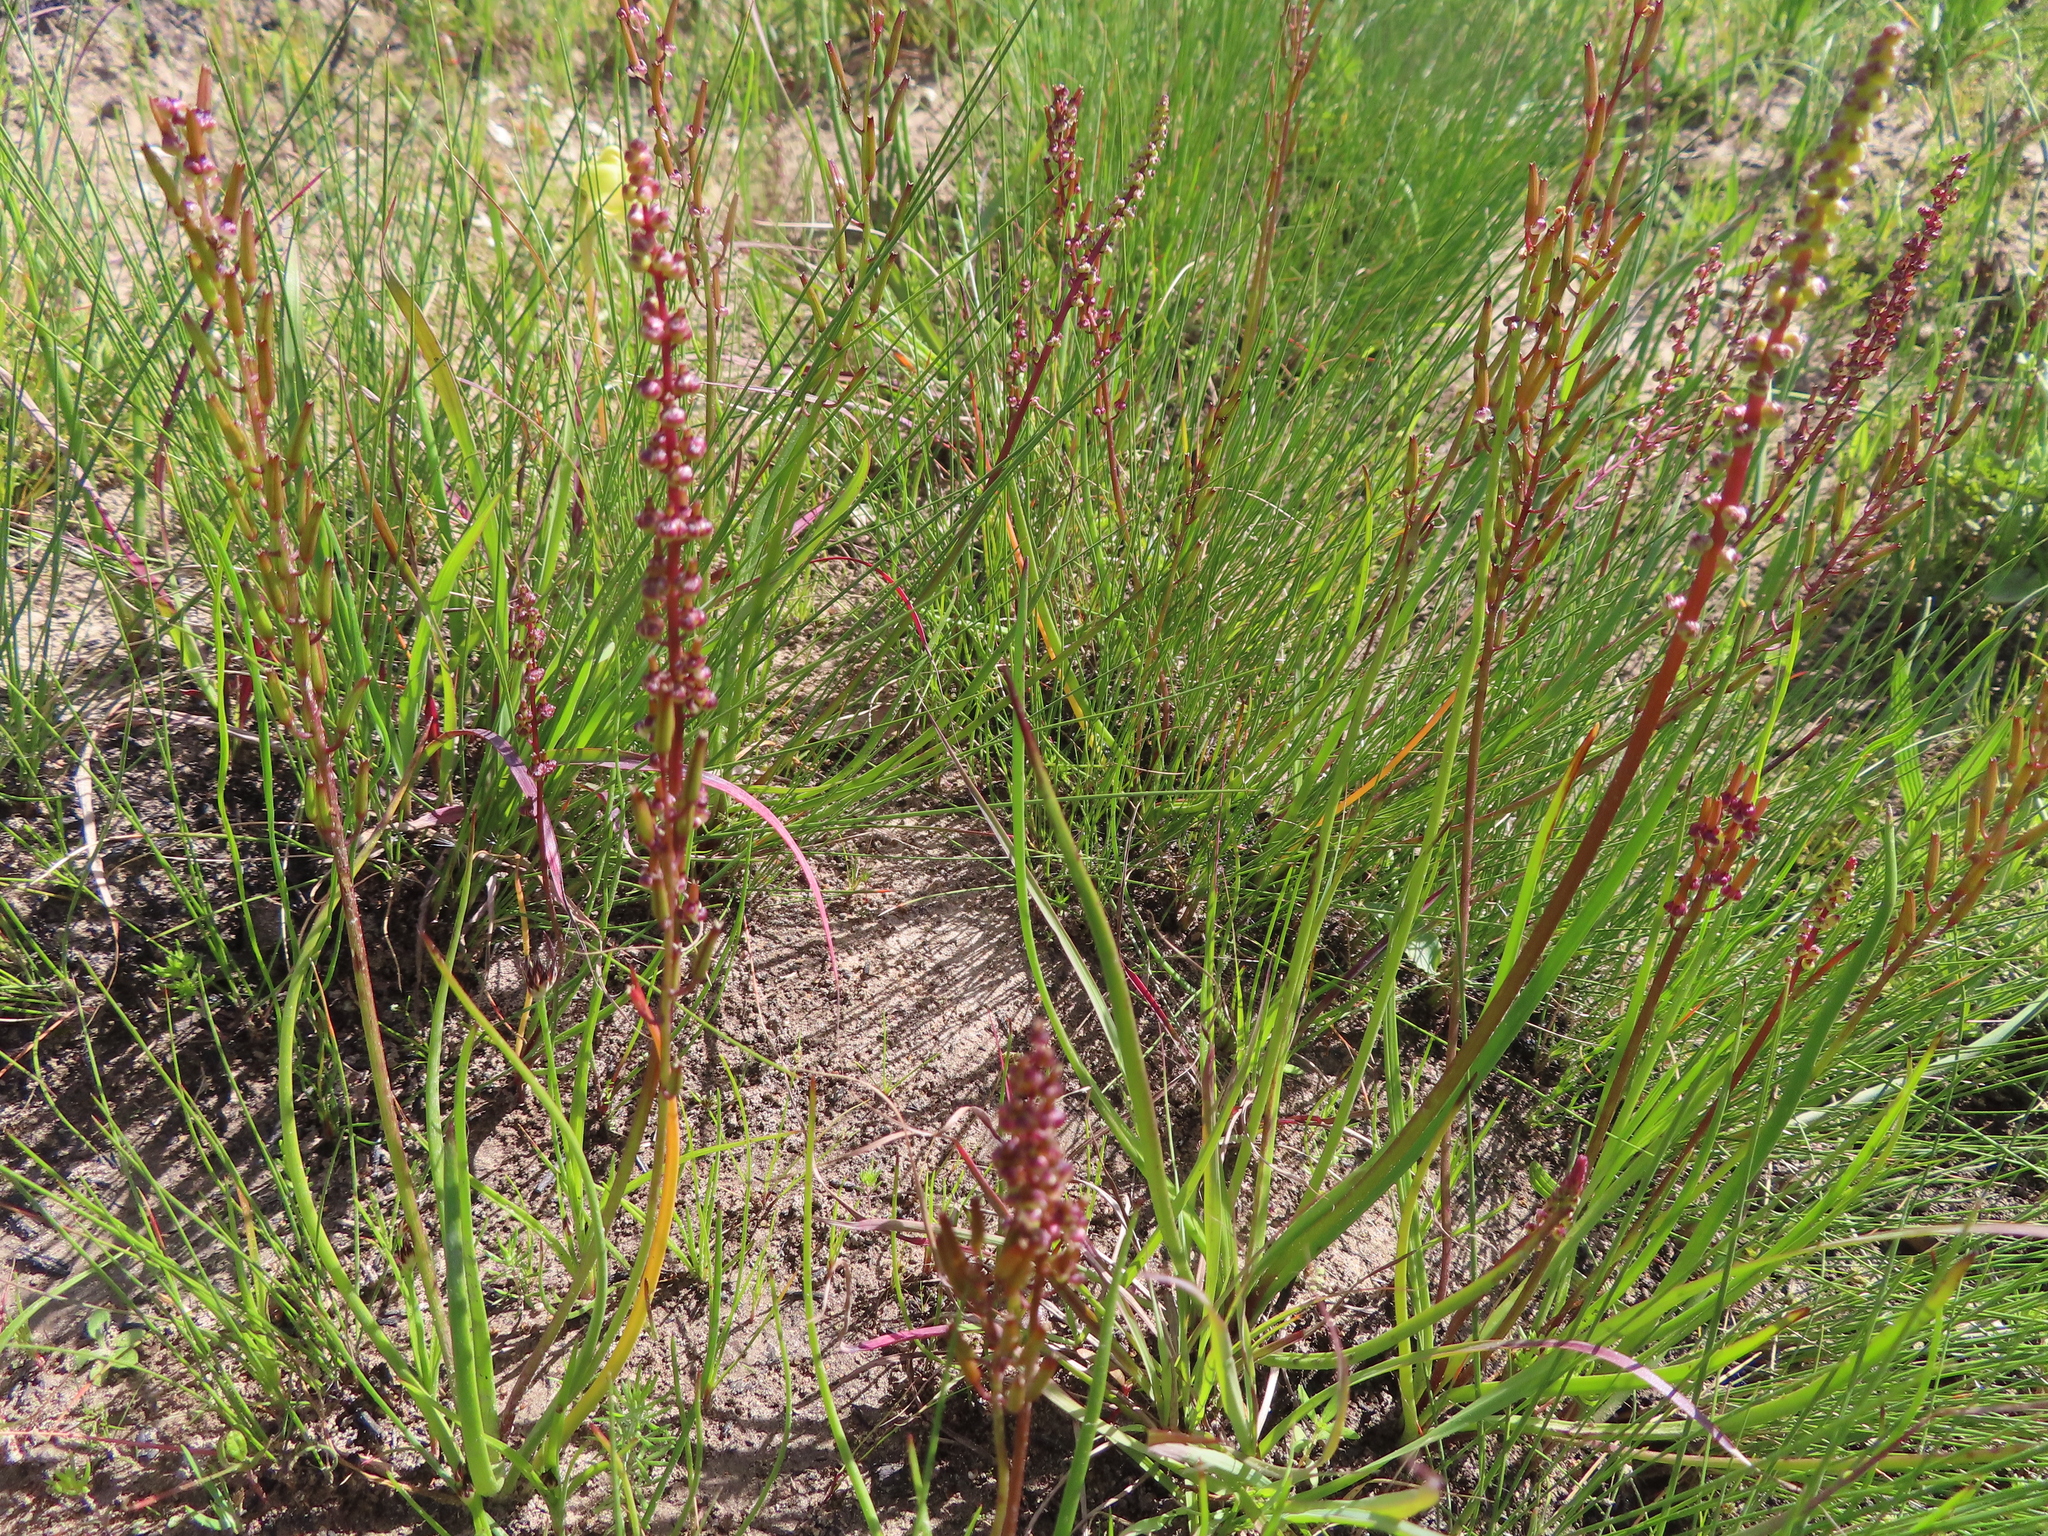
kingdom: Plantae
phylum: Tracheophyta
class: Liliopsida
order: Alismatales
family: Juncaginaceae
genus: Triglochin
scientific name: Triglochin bulbosa
